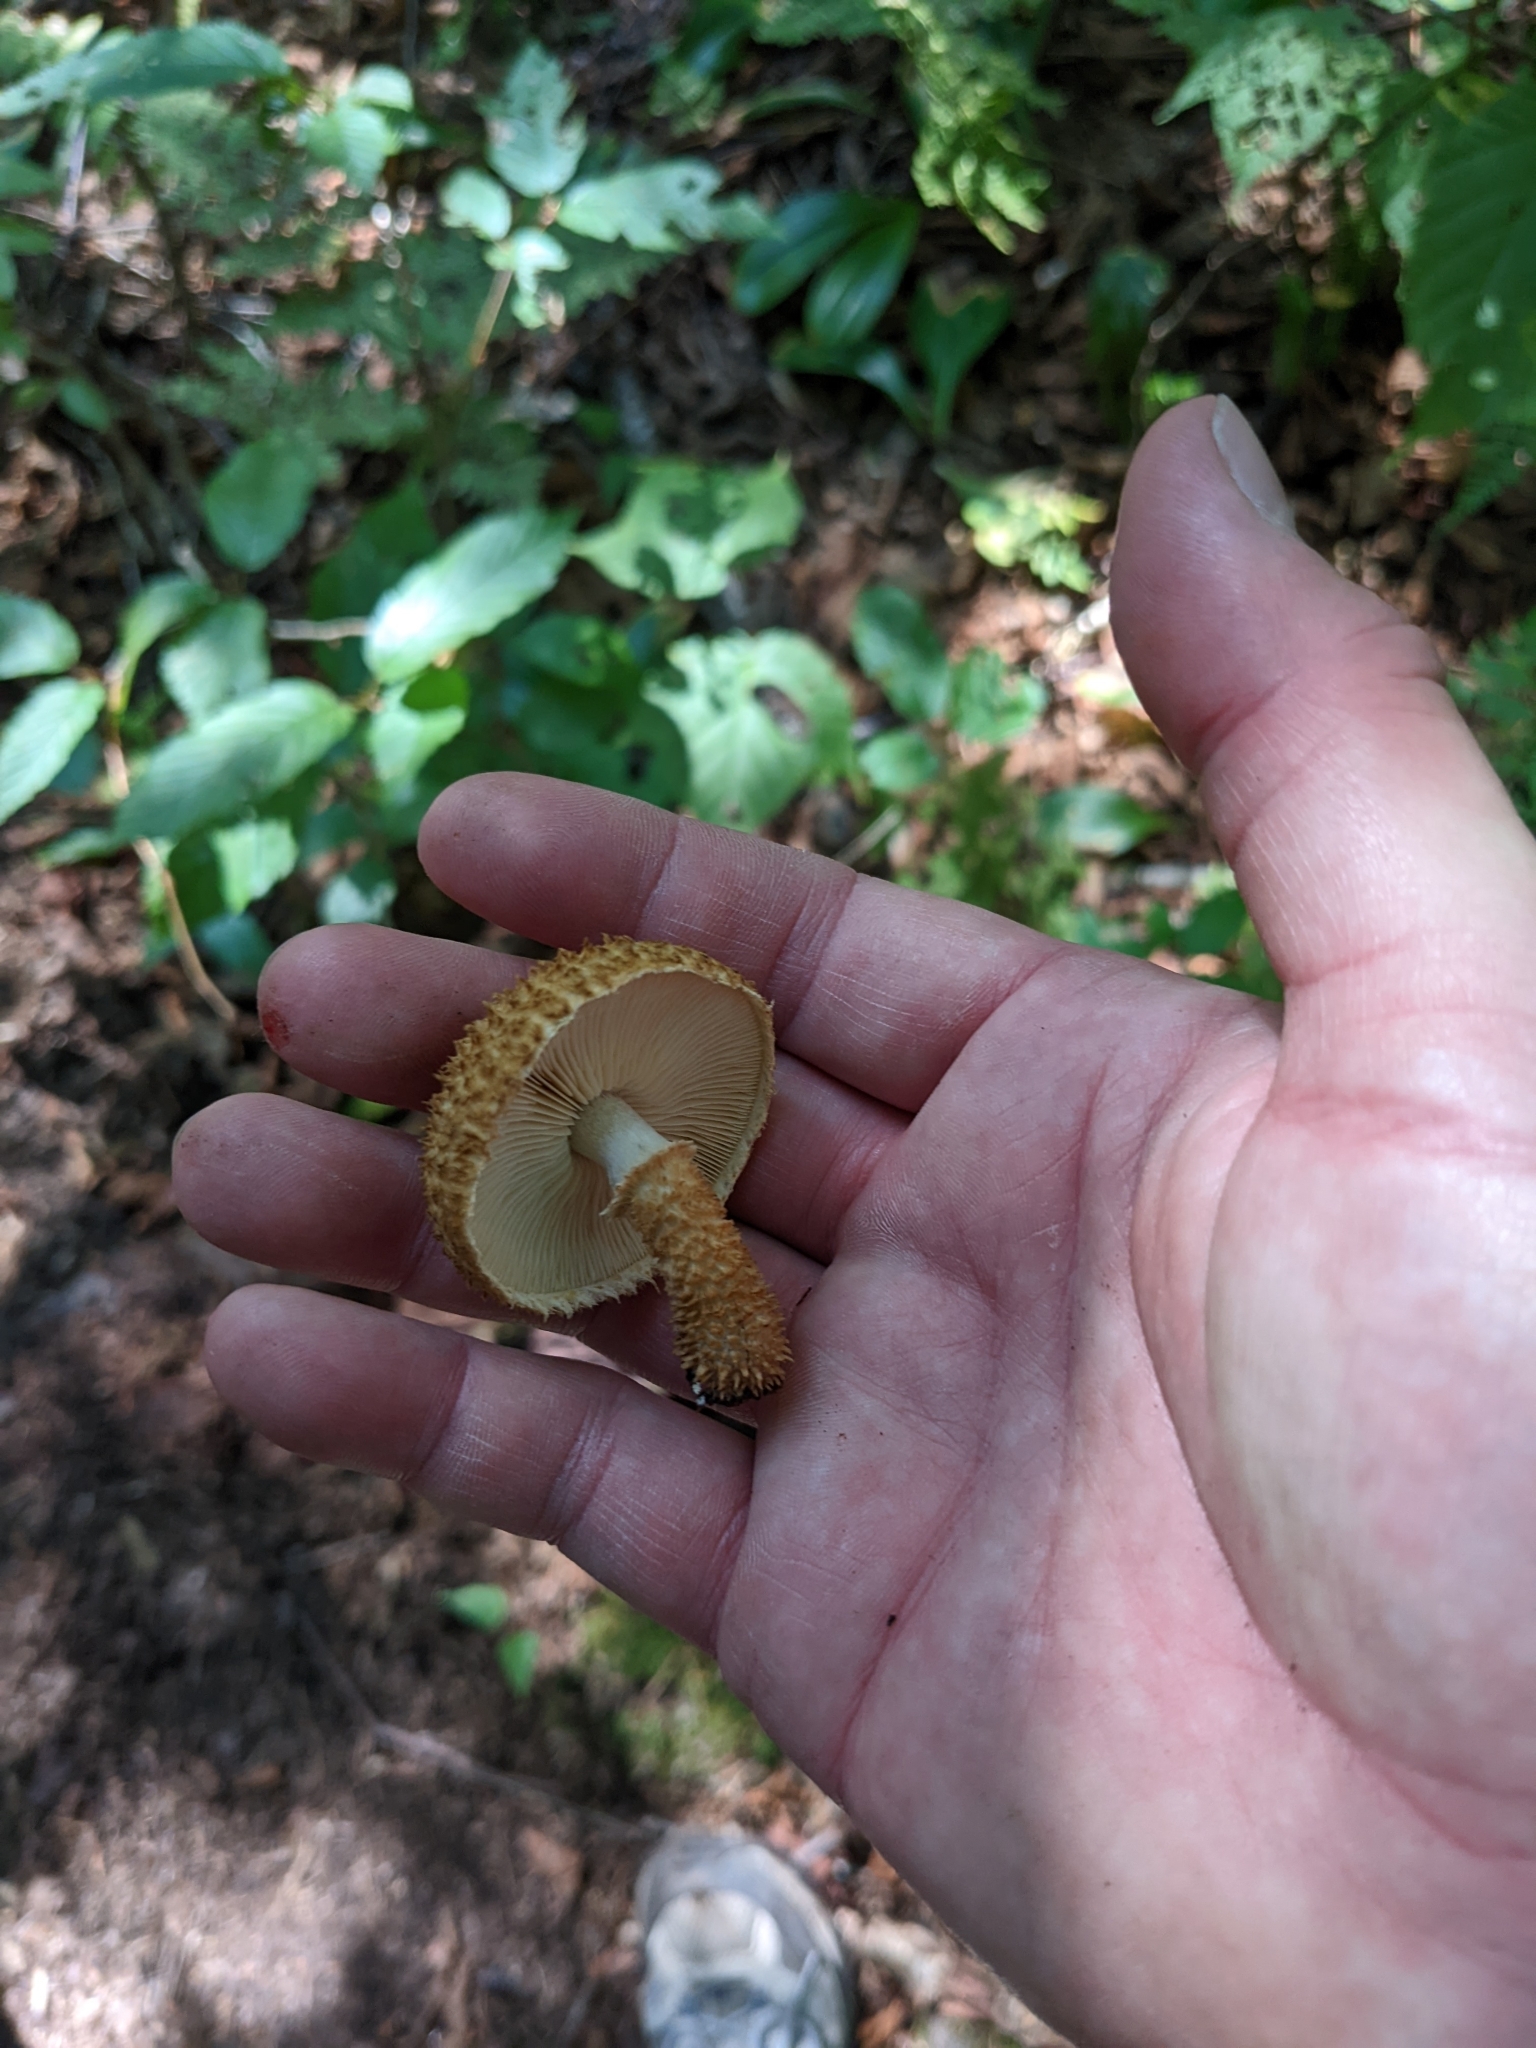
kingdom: Fungi
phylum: Basidiomycota
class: Agaricomycetes
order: Agaricales
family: Agaricaceae
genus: Leucopholiota
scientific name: Leucopholiota decorosa
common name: Decorated pholiota
